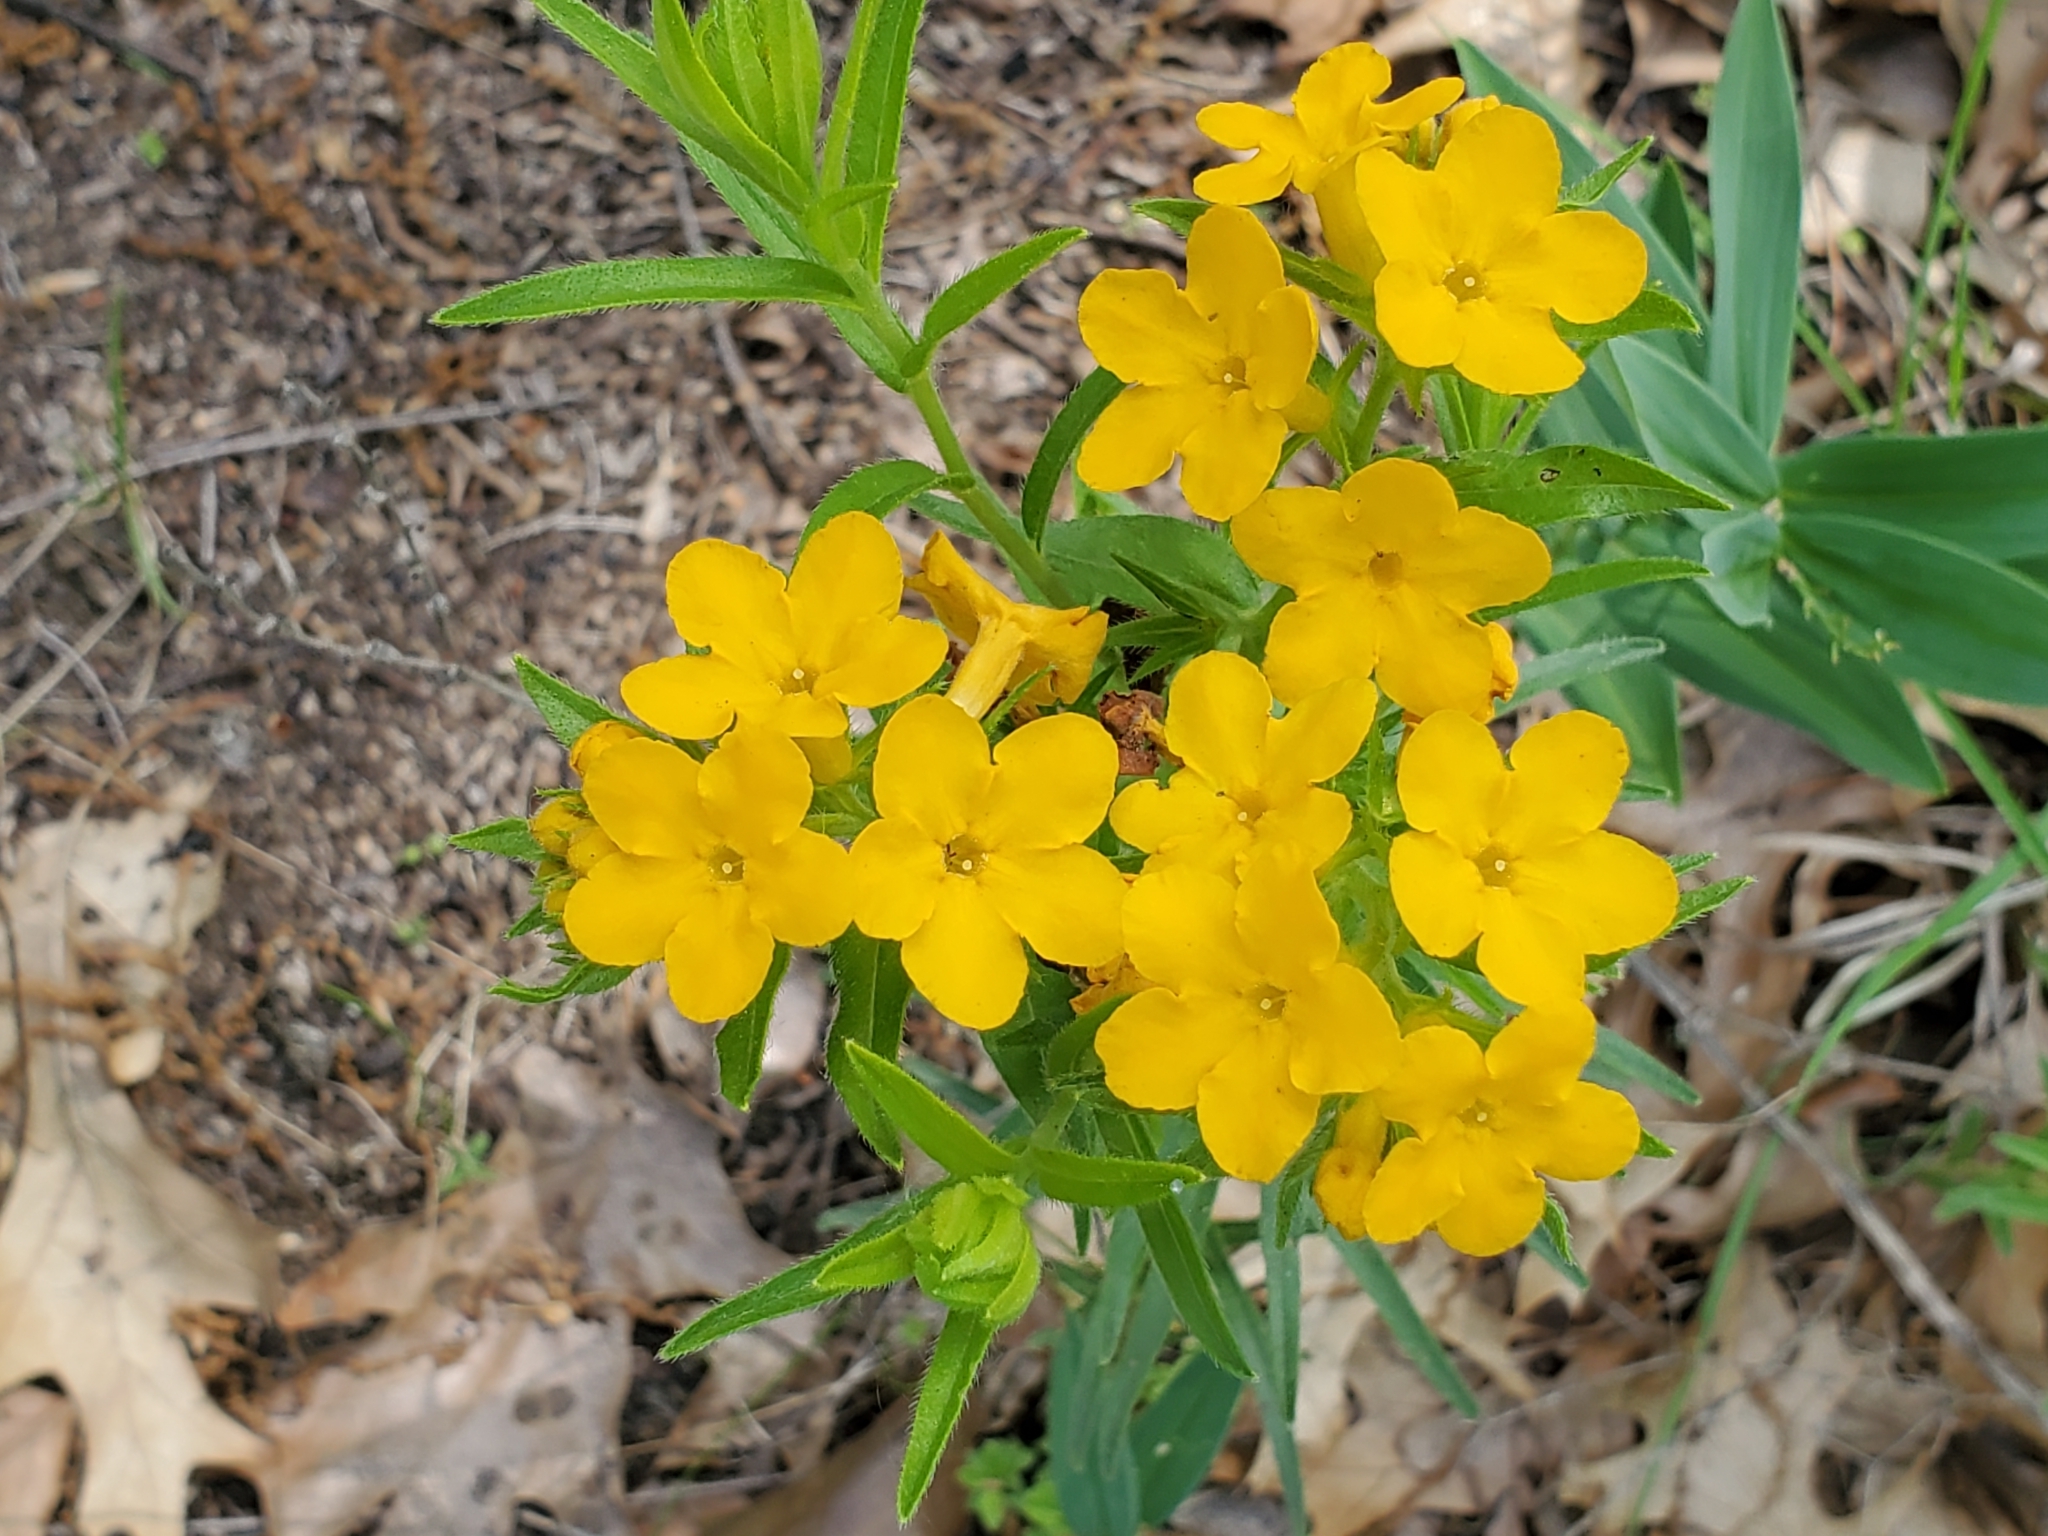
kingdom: Plantae
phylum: Tracheophyta
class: Magnoliopsida
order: Boraginales
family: Boraginaceae
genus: Lithospermum
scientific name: Lithospermum caroliniense
